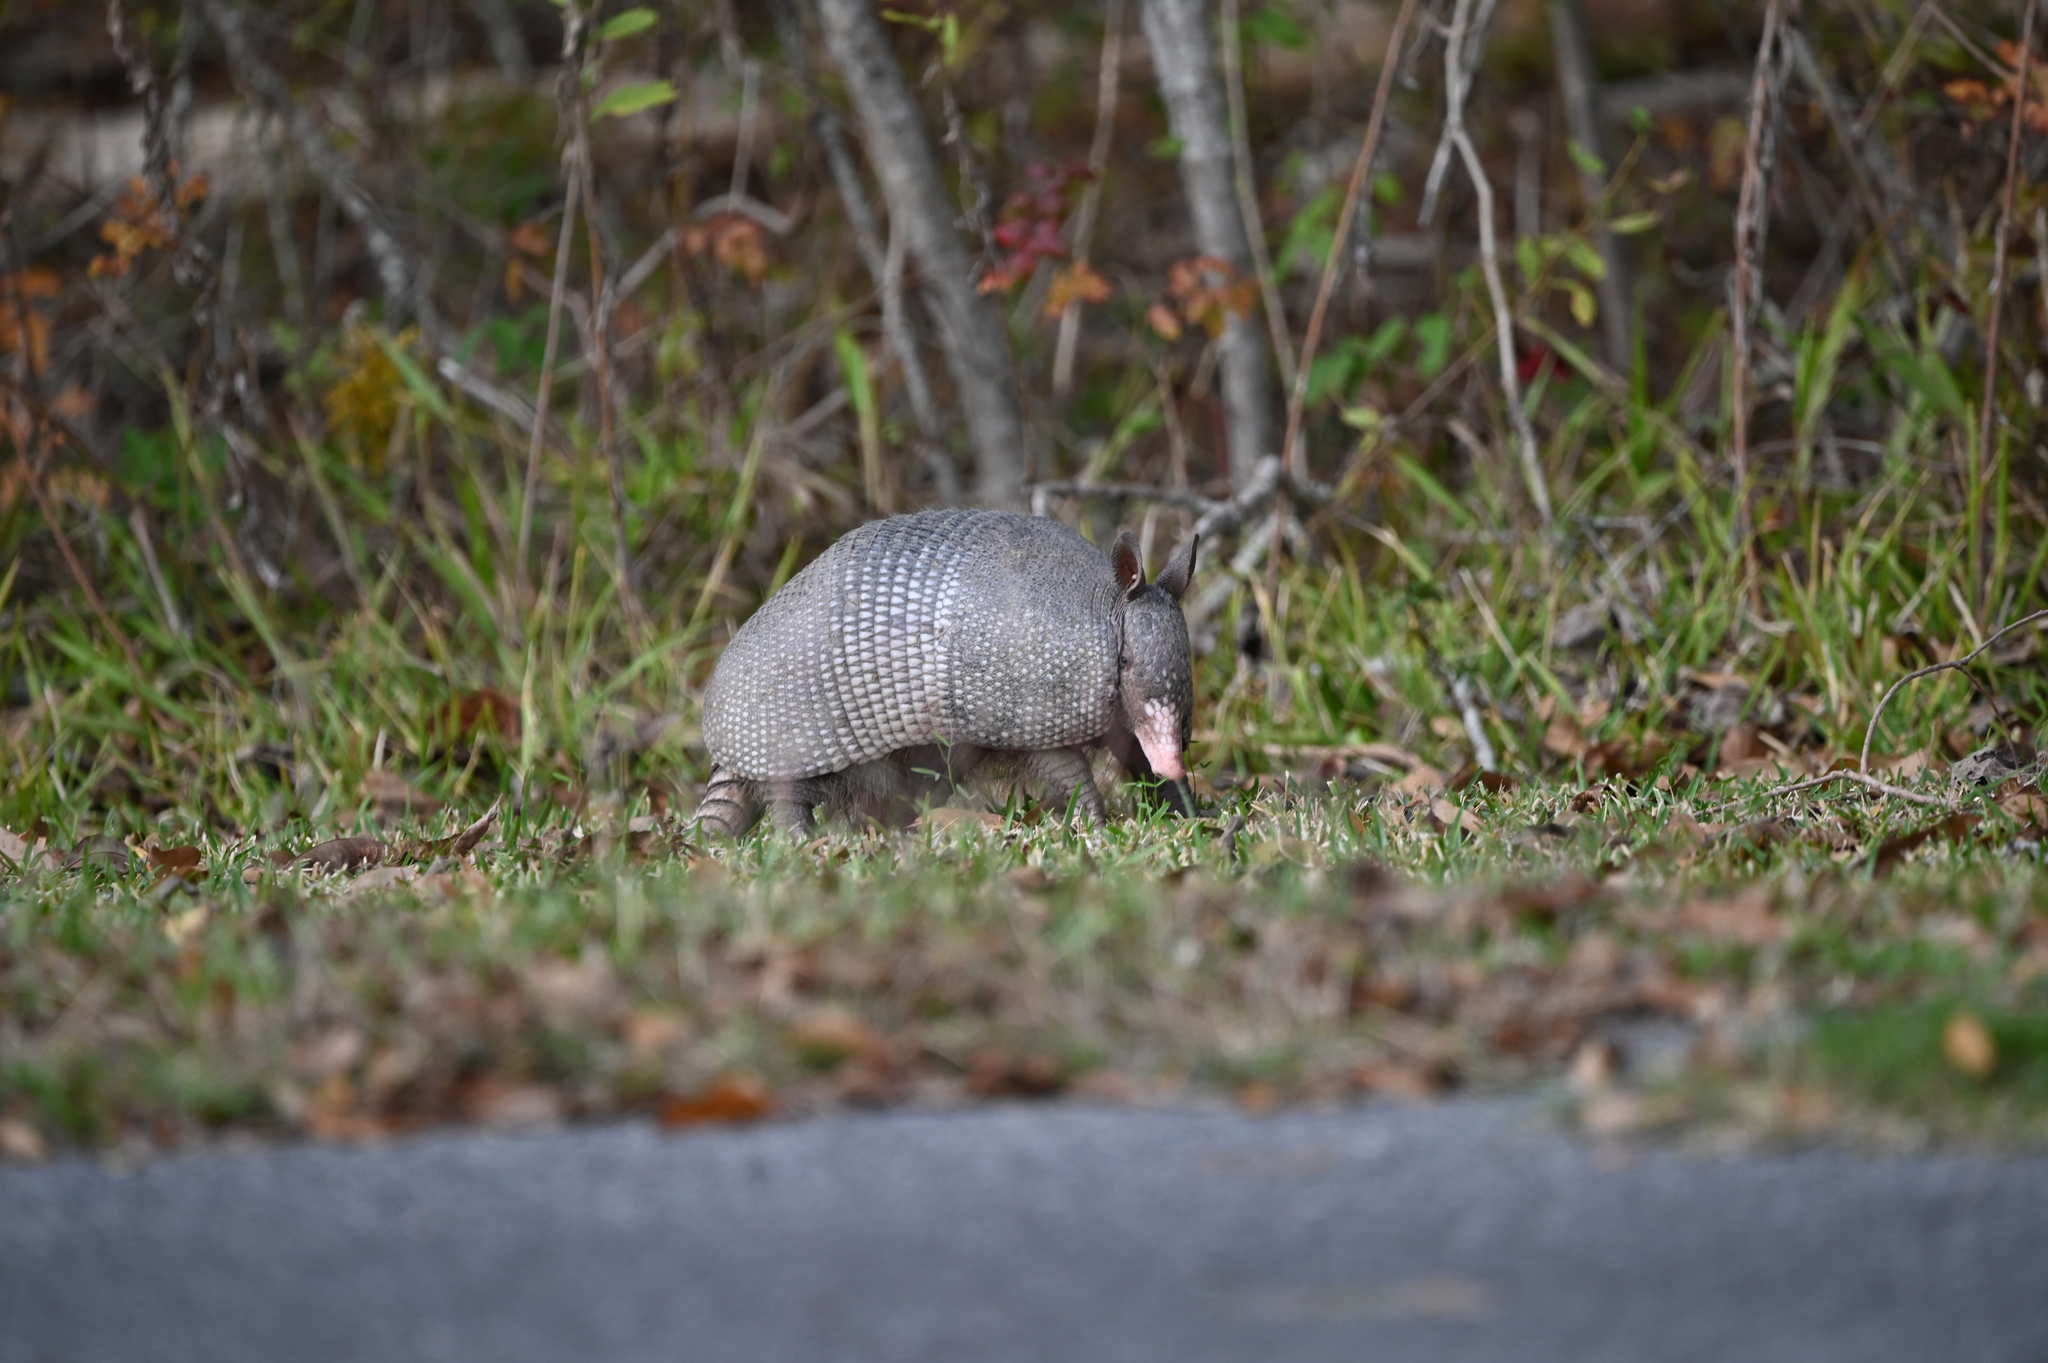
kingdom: Animalia
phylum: Chordata
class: Mammalia
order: Cingulata
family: Dasypodidae
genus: Dasypus
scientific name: Dasypus novemcinctus
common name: Nine-banded armadillo
